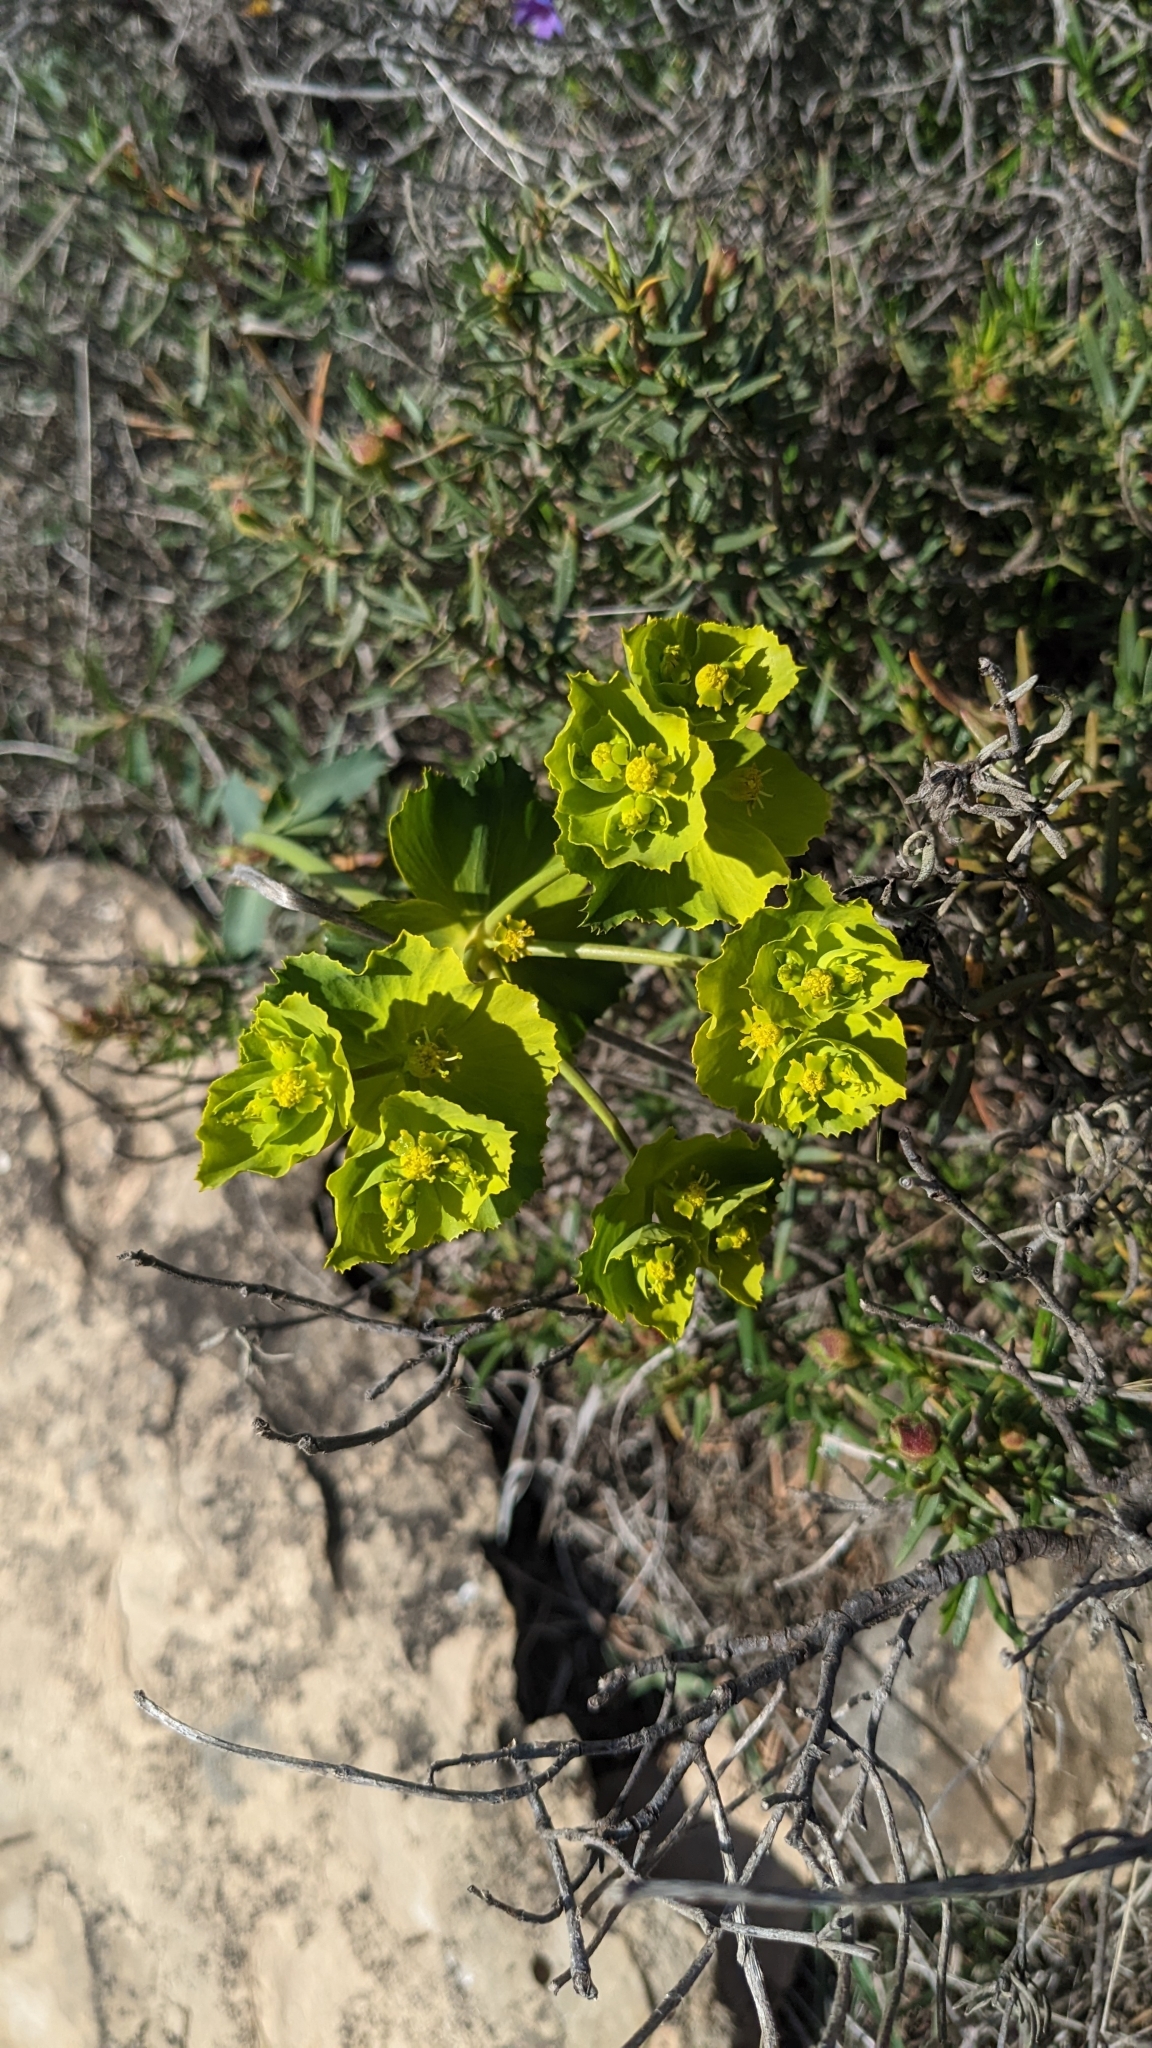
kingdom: Plantae
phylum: Tracheophyta
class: Magnoliopsida
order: Malpighiales
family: Euphorbiaceae
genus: Euphorbia
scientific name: Euphorbia serrata
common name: Serrate spurge
